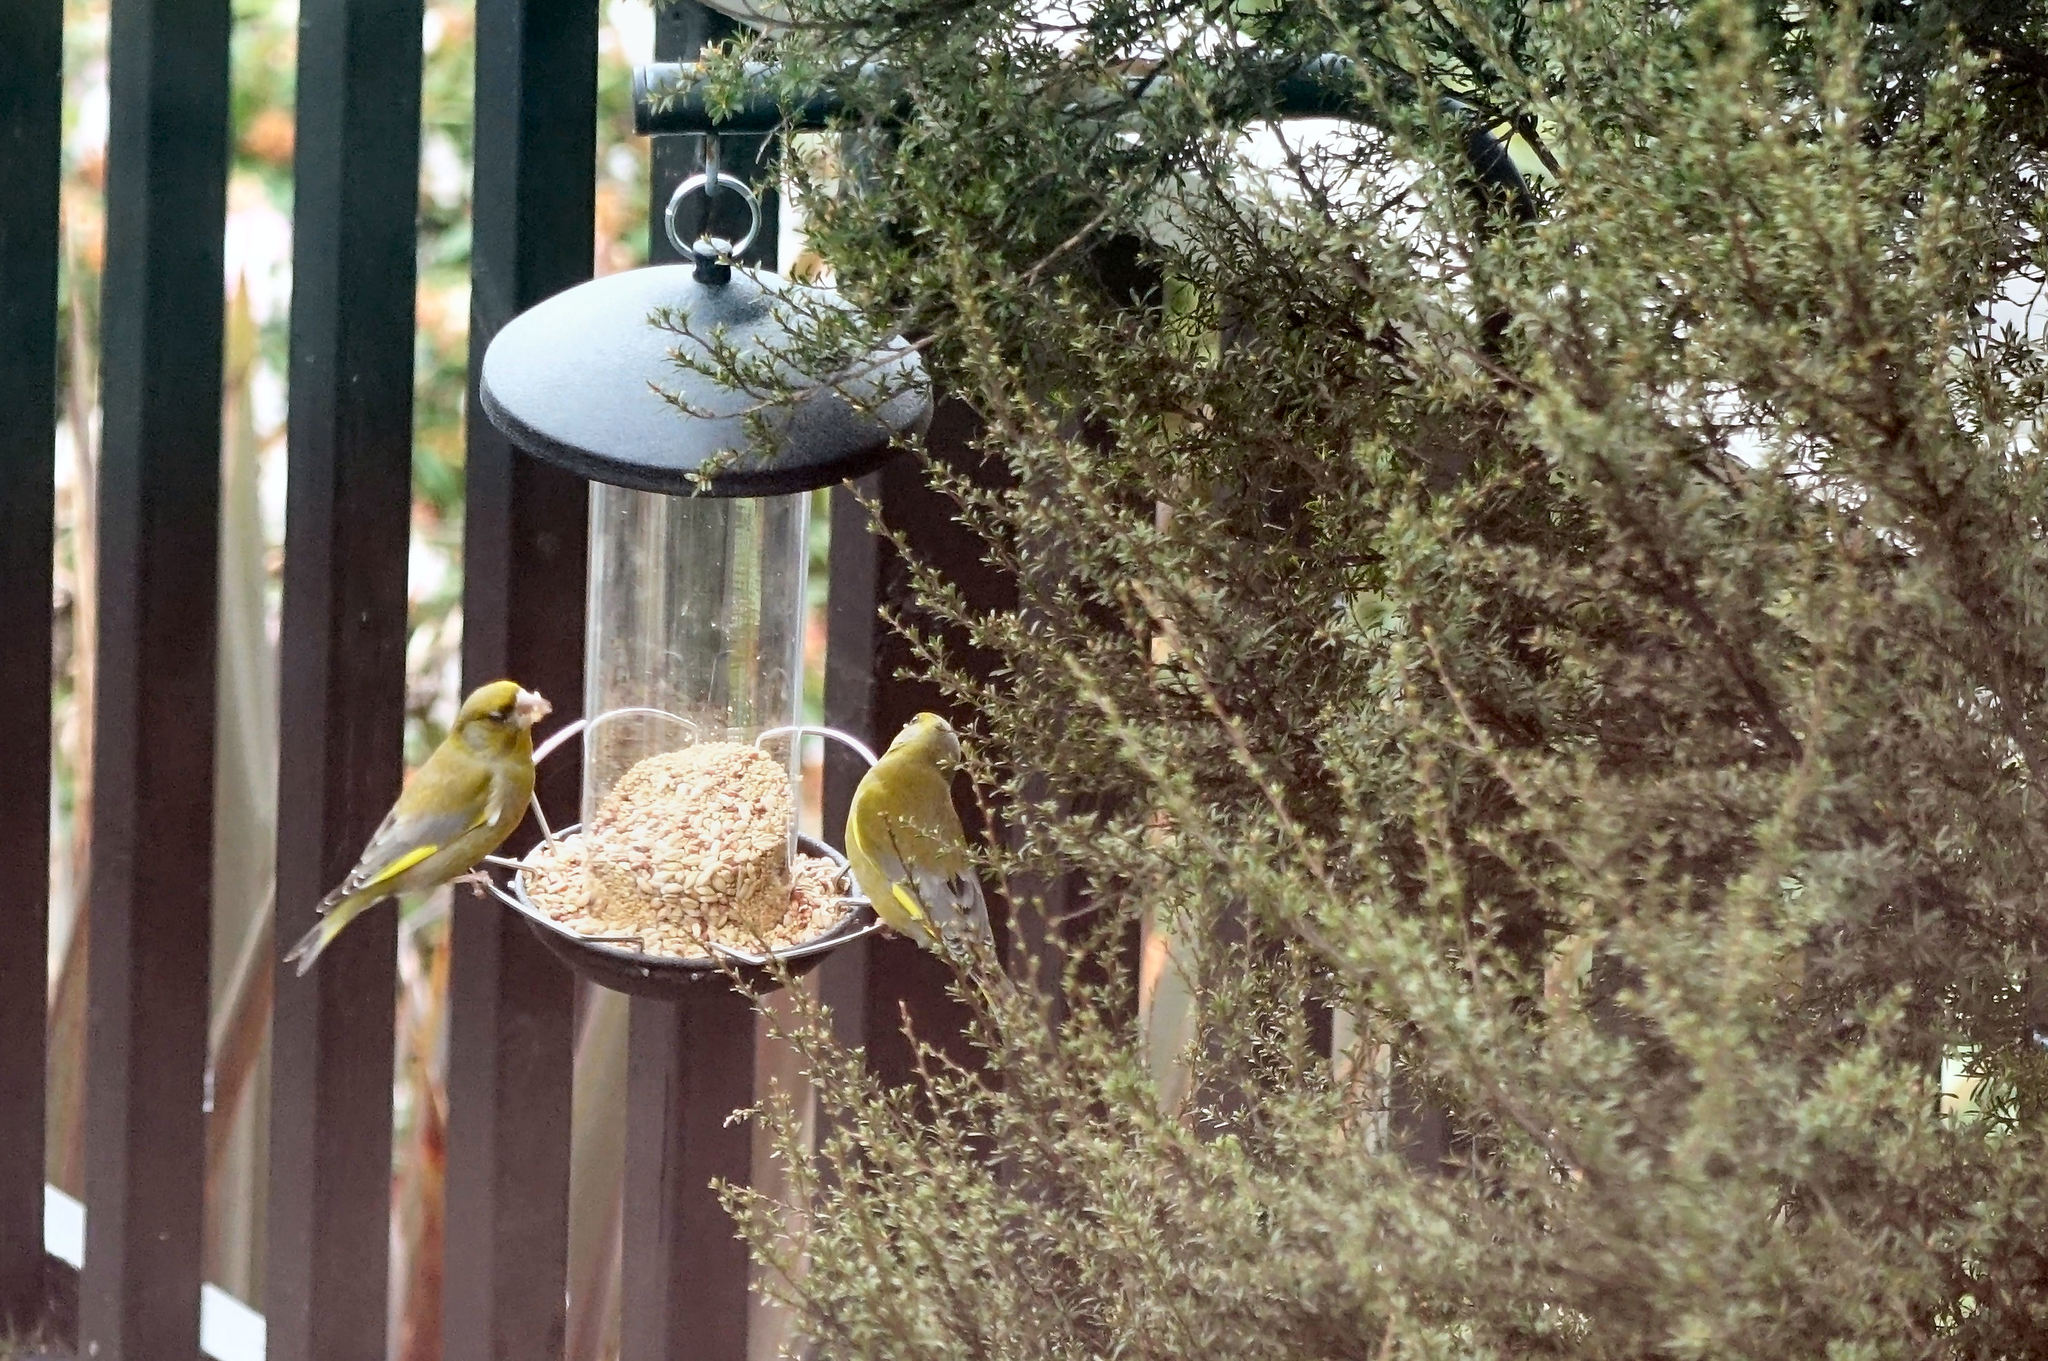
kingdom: Plantae
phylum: Tracheophyta
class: Liliopsida
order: Poales
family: Poaceae
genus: Chloris
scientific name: Chloris chloris
